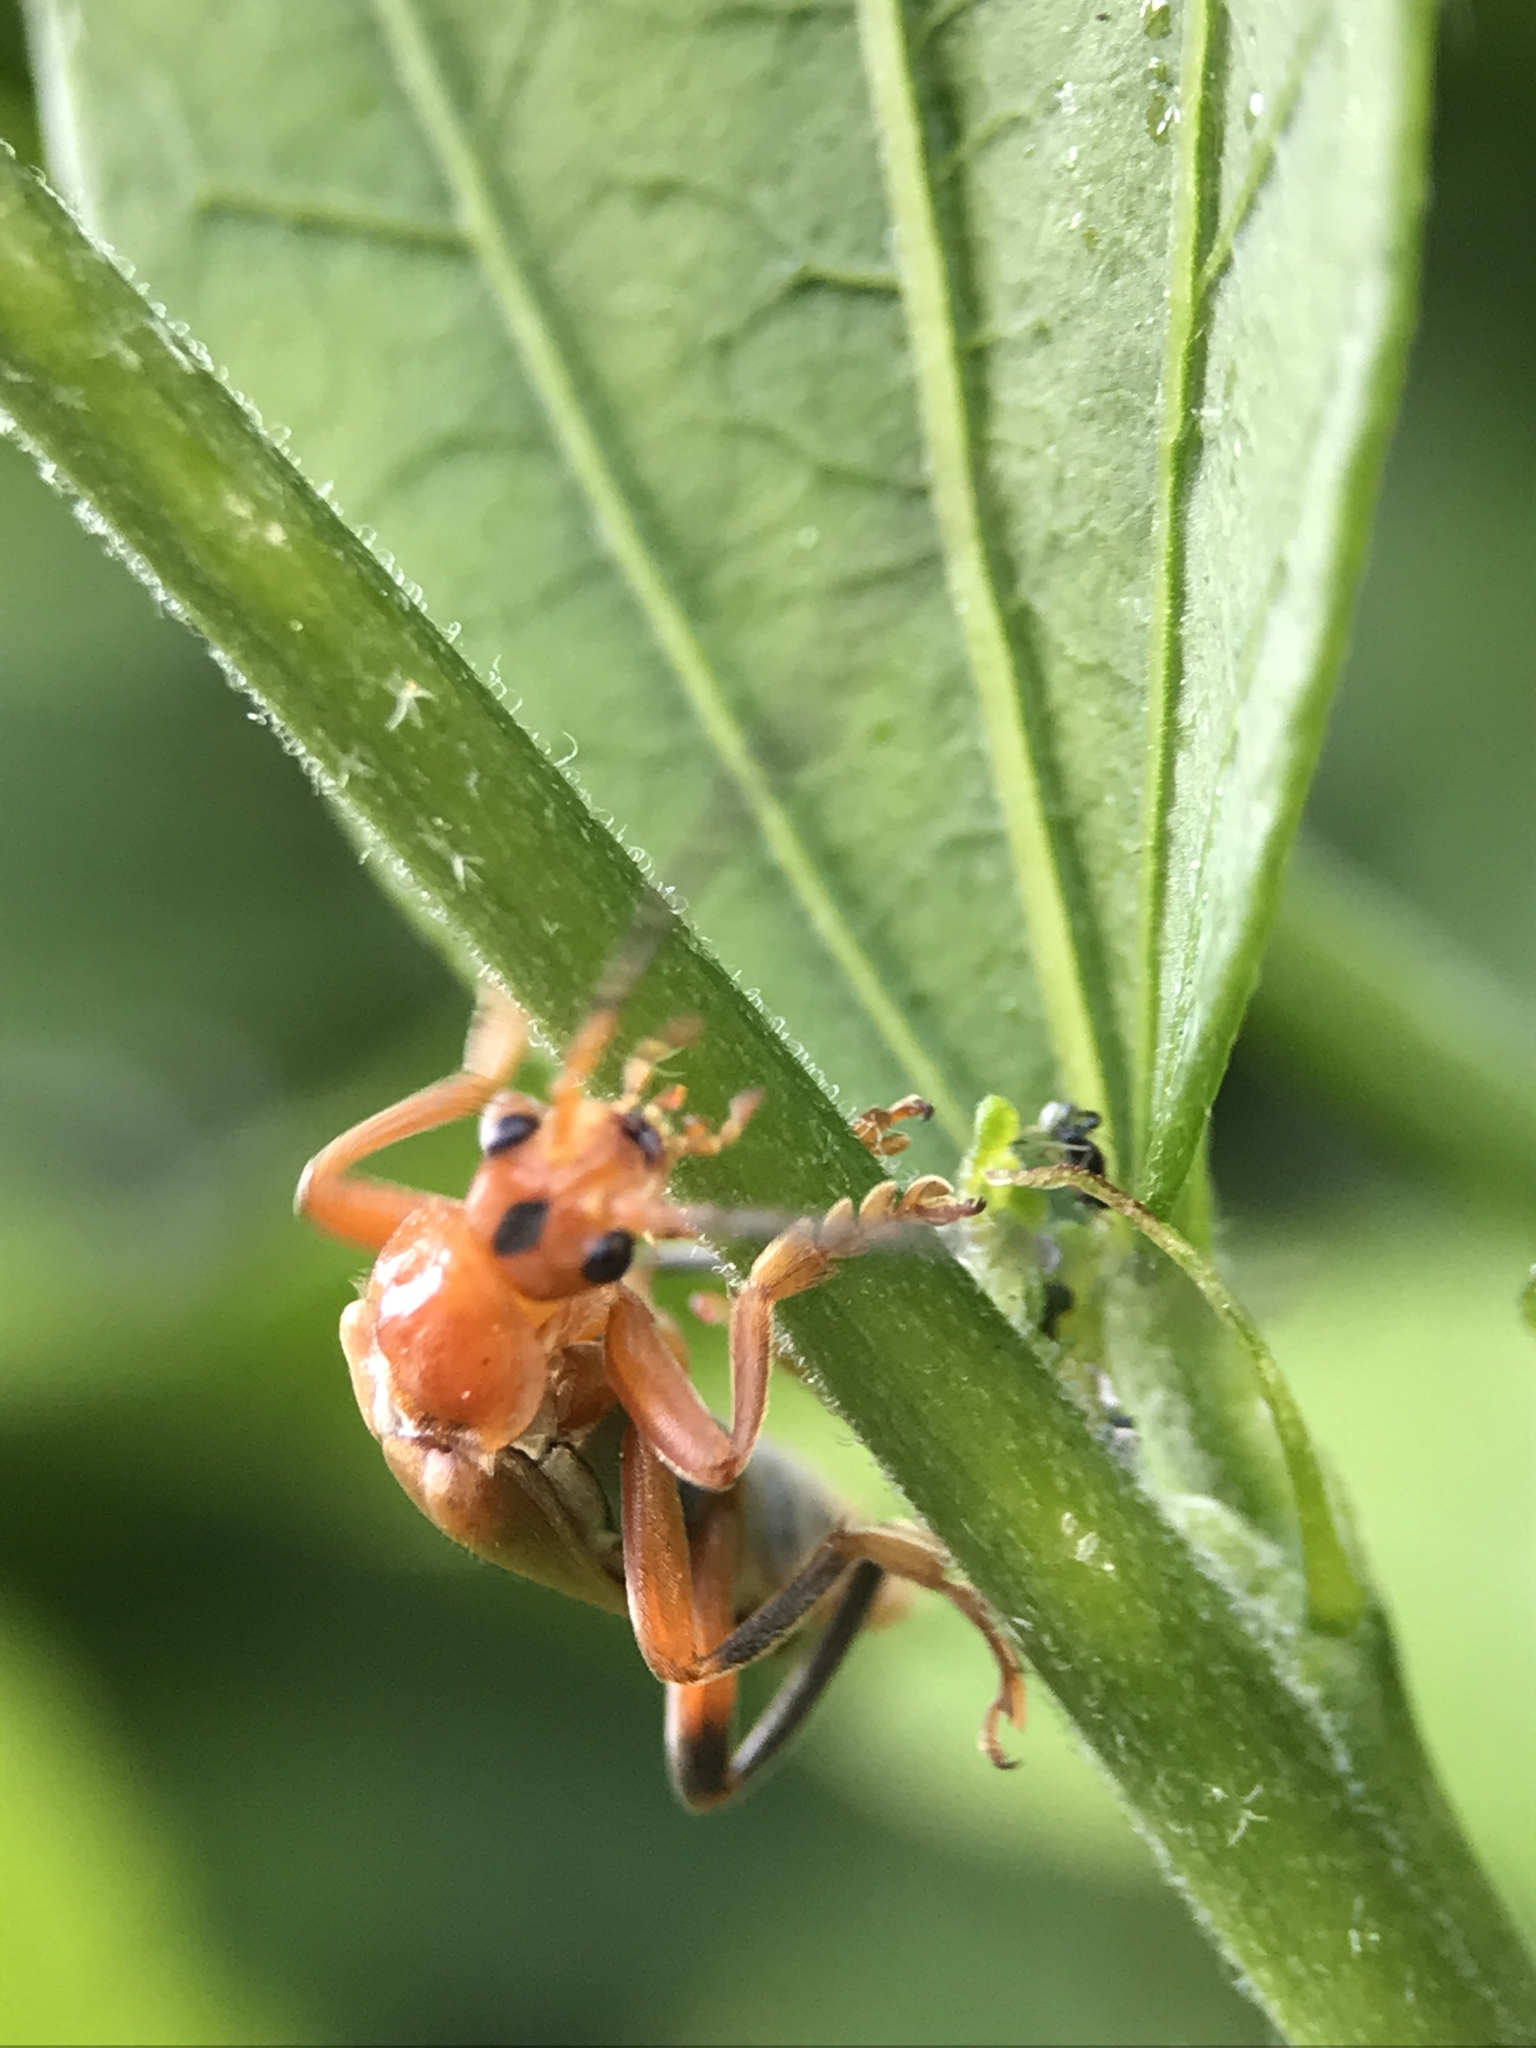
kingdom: Animalia
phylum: Arthropoda
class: Insecta
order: Coleoptera
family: Cantharidae
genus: Cantharis
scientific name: Cantharis livida
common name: Livid soldier beetle
